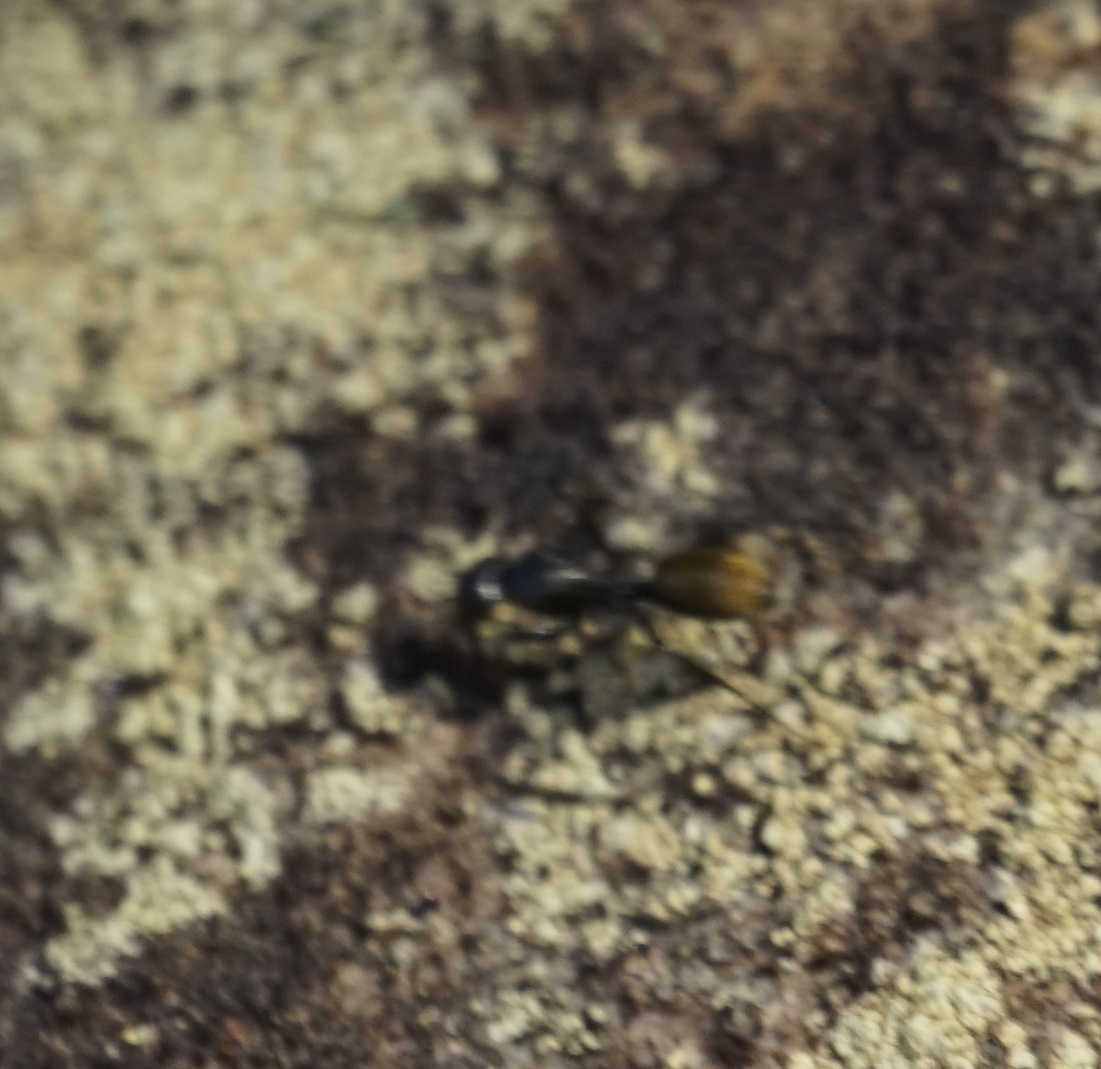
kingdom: Animalia
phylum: Arthropoda
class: Insecta
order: Hymenoptera
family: Formicidae
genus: Camponotus
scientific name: Camponotus aeneopilosus
